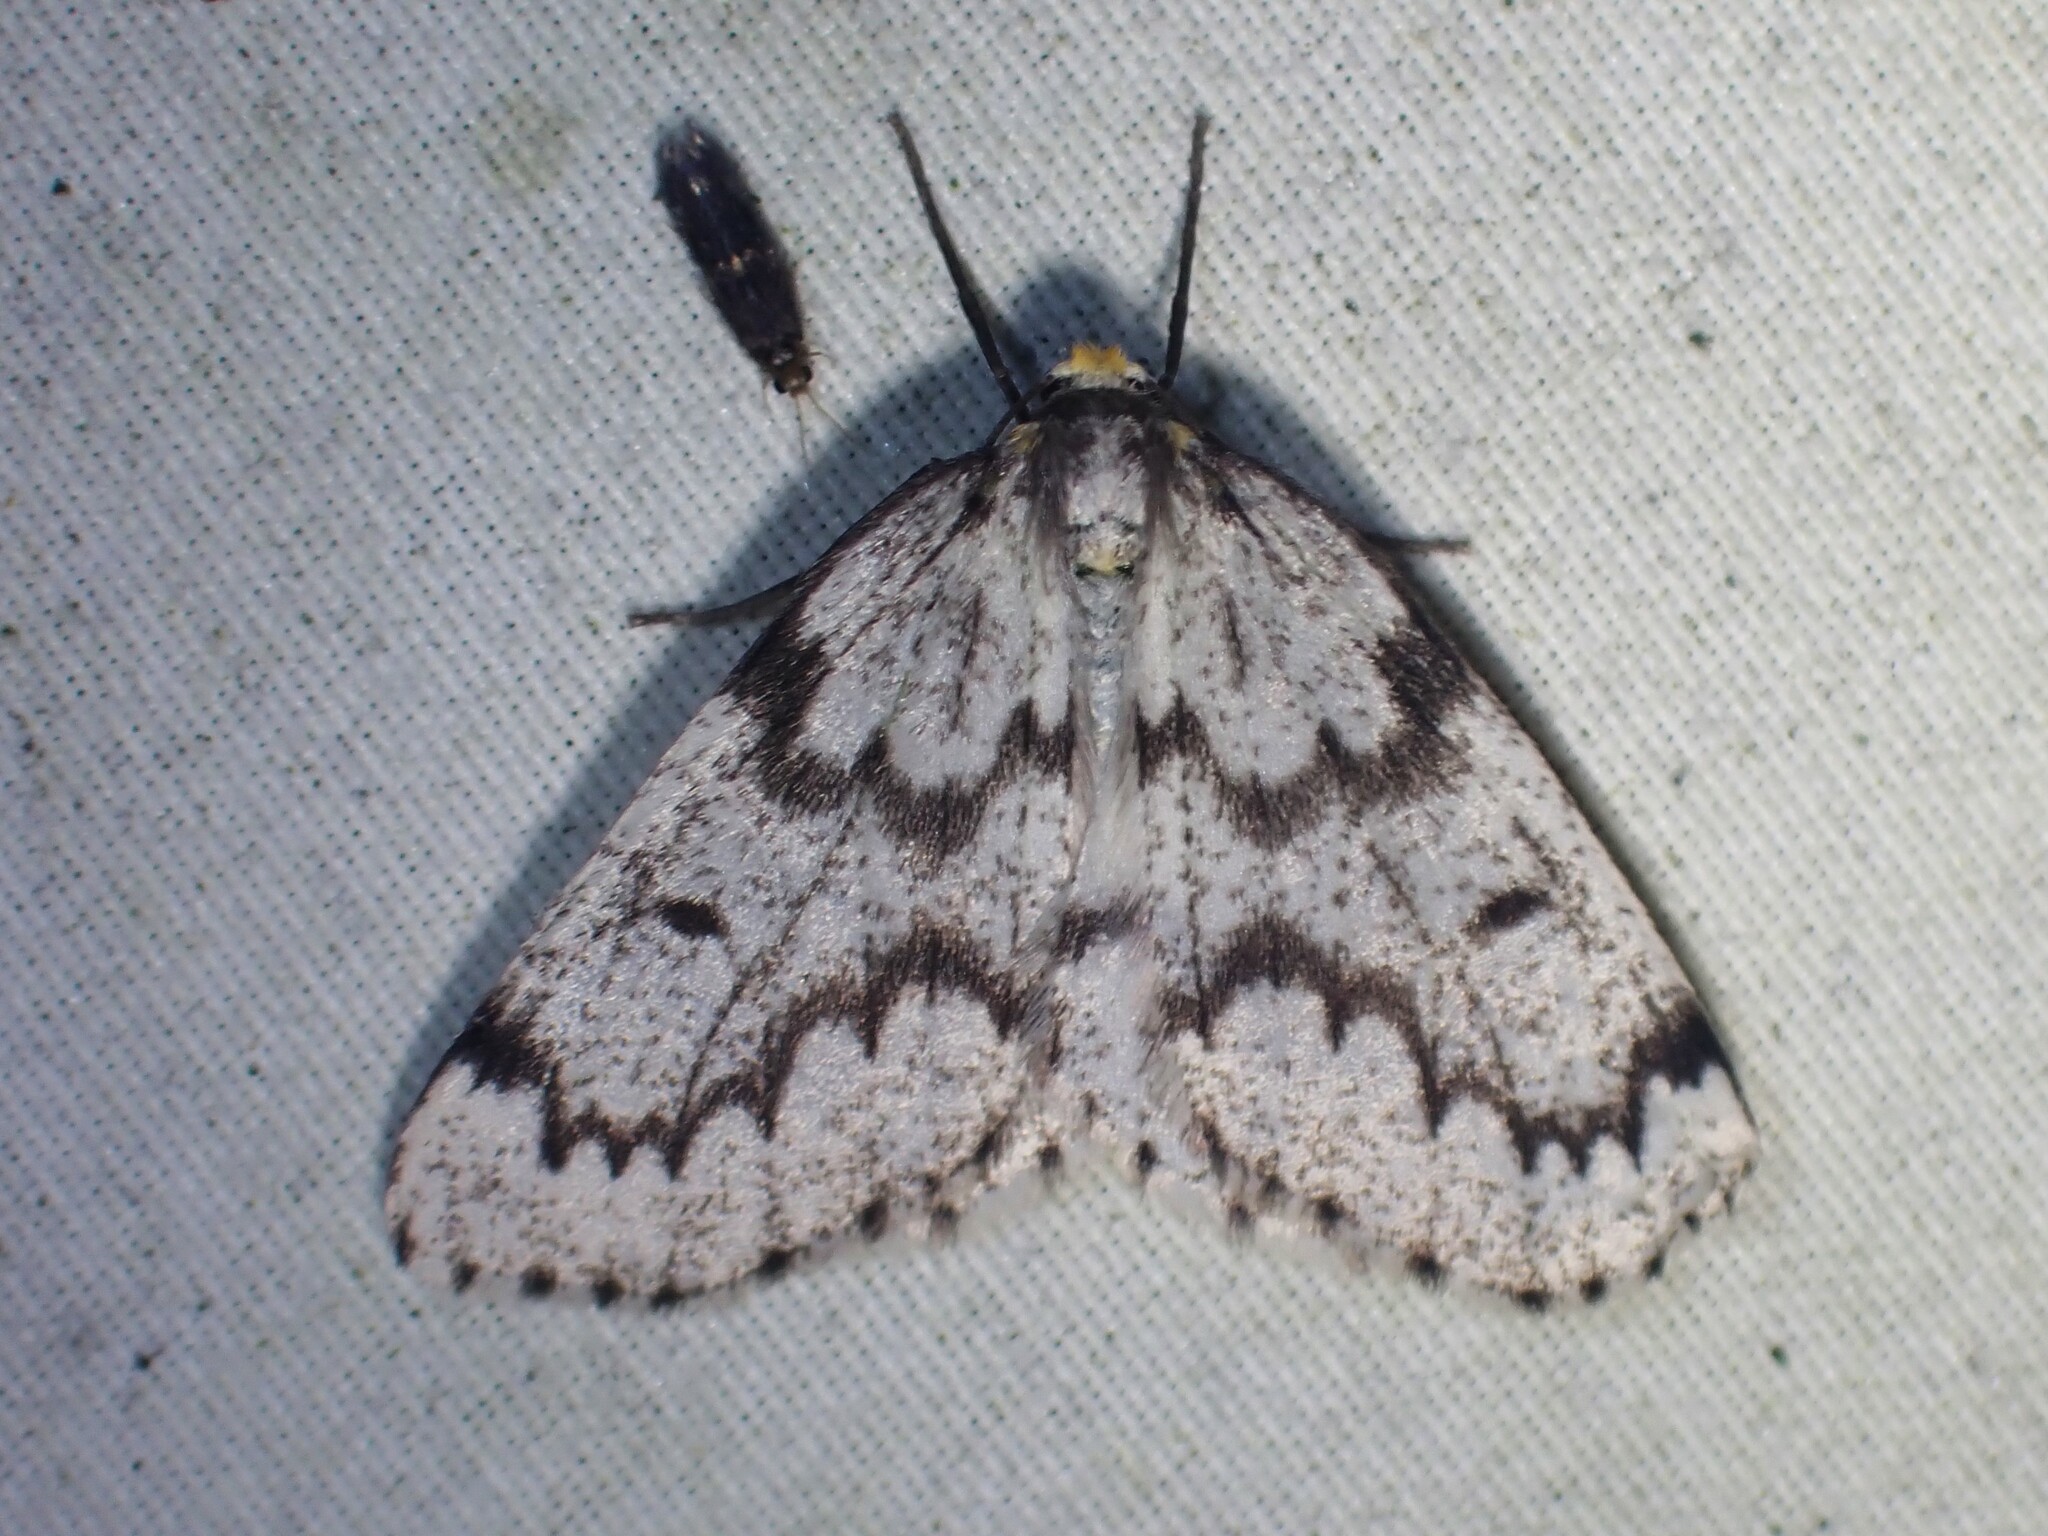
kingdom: Animalia
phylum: Arthropoda
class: Insecta
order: Lepidoptera
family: Geometridae
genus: Nepytia
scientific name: Nepytia canosaria
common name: False hemlock looper
